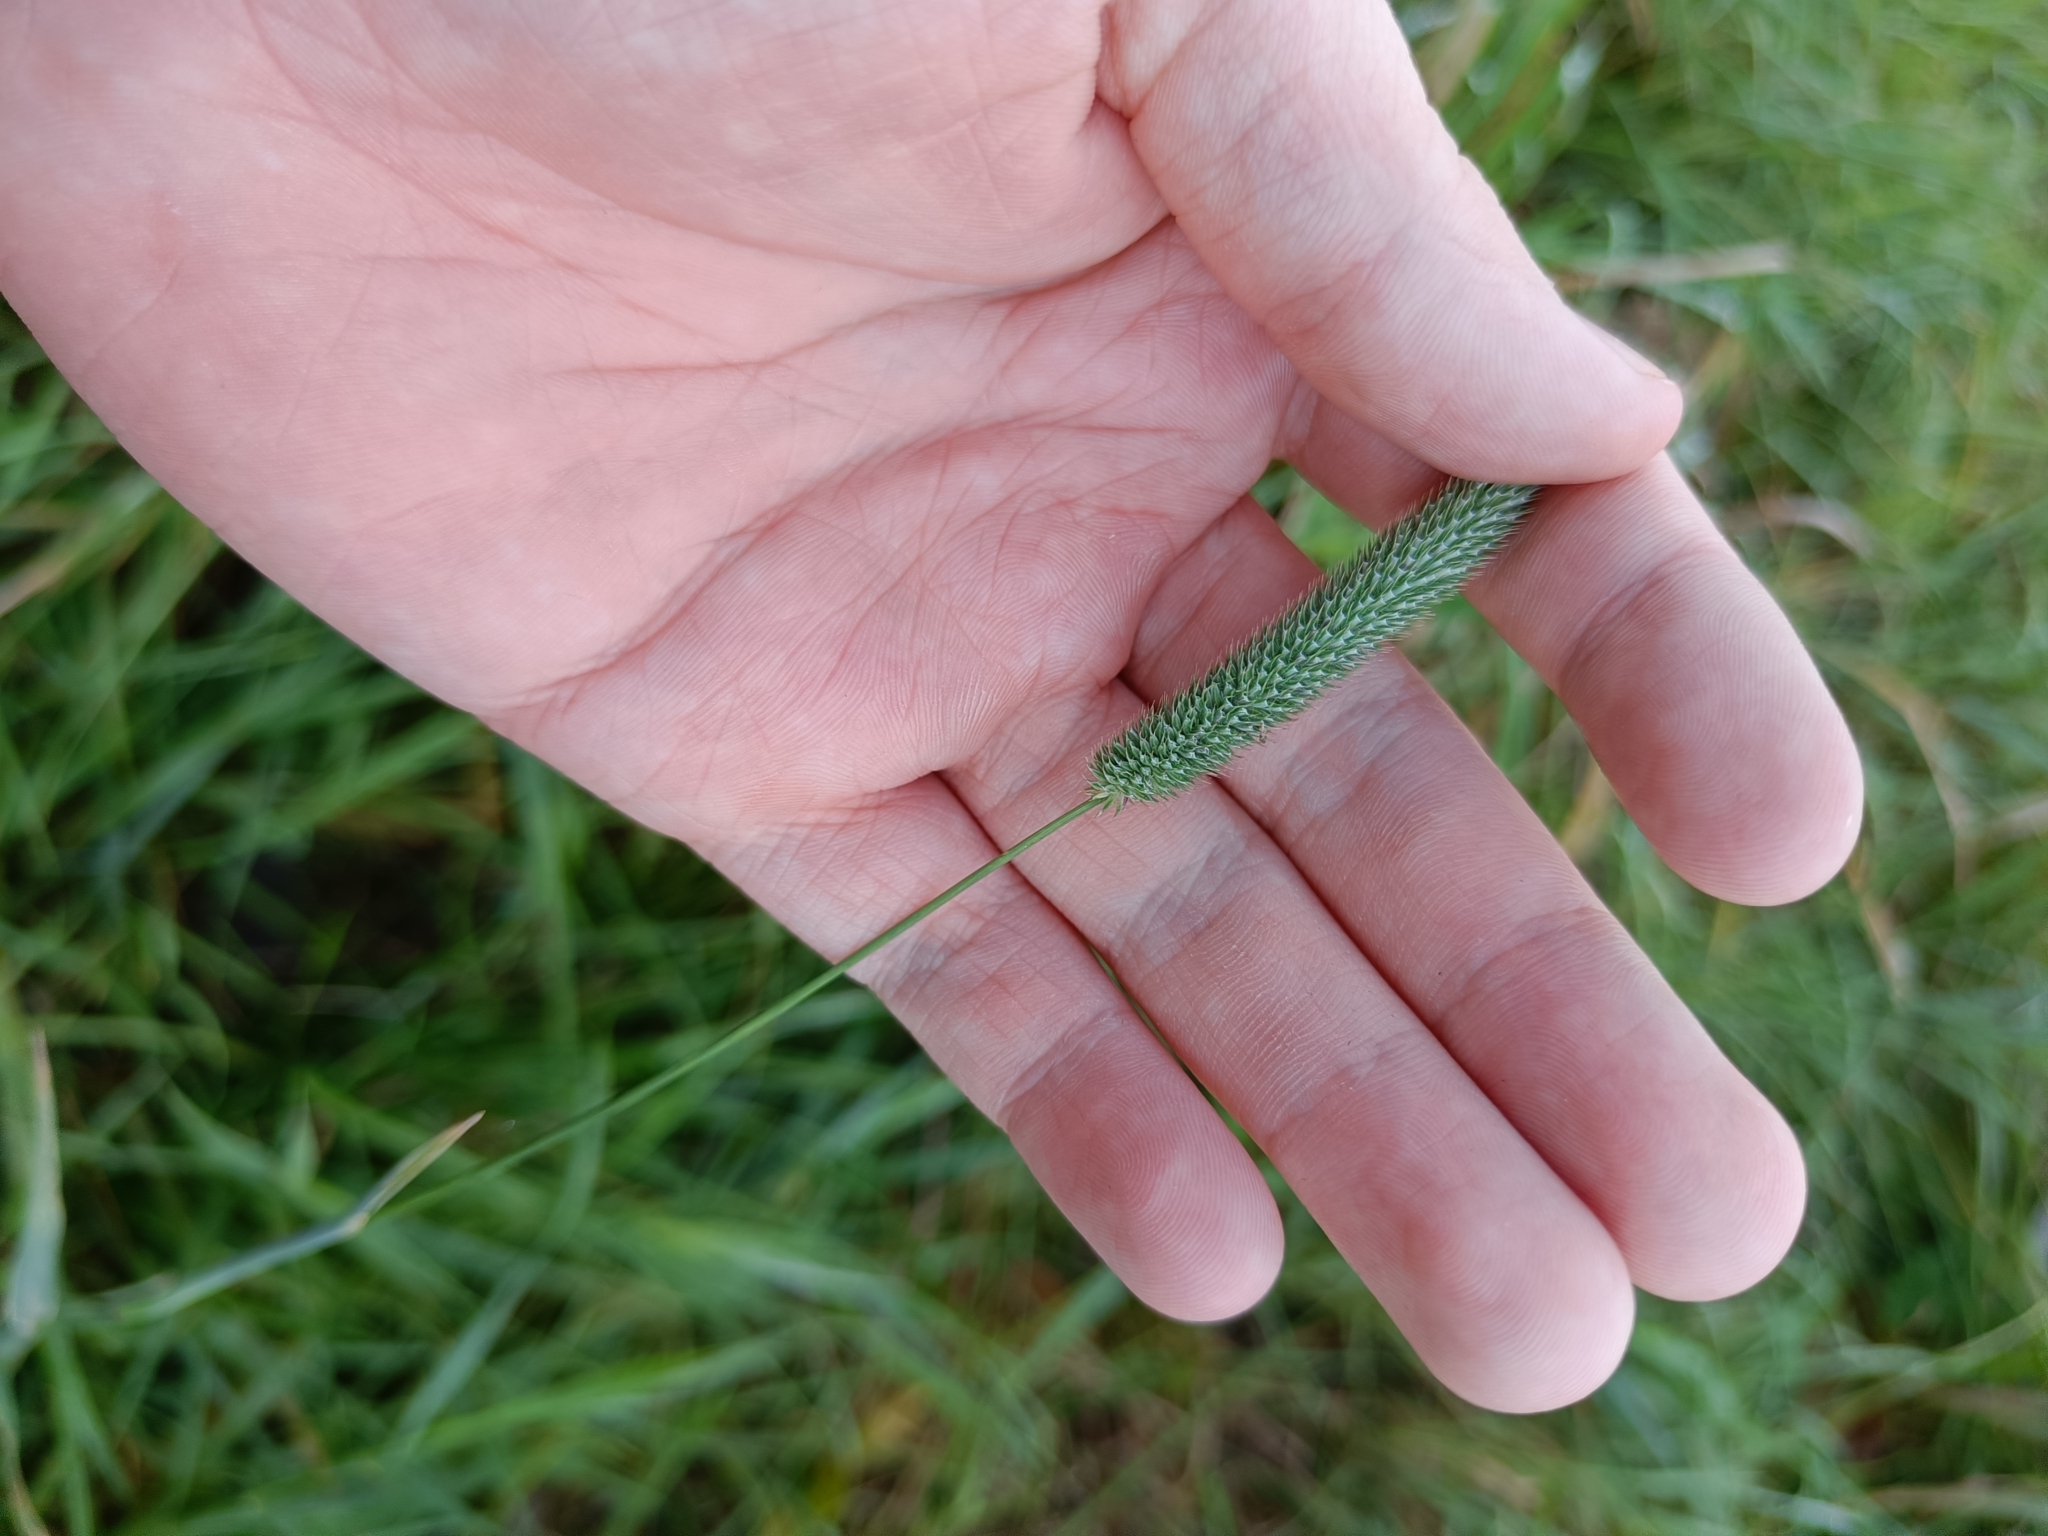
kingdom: Plantae
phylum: Tracheophyta
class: Liliopsida
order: Poales
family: Poaceae
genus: Phleum
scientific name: Phleum pratense
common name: Timothy grass
